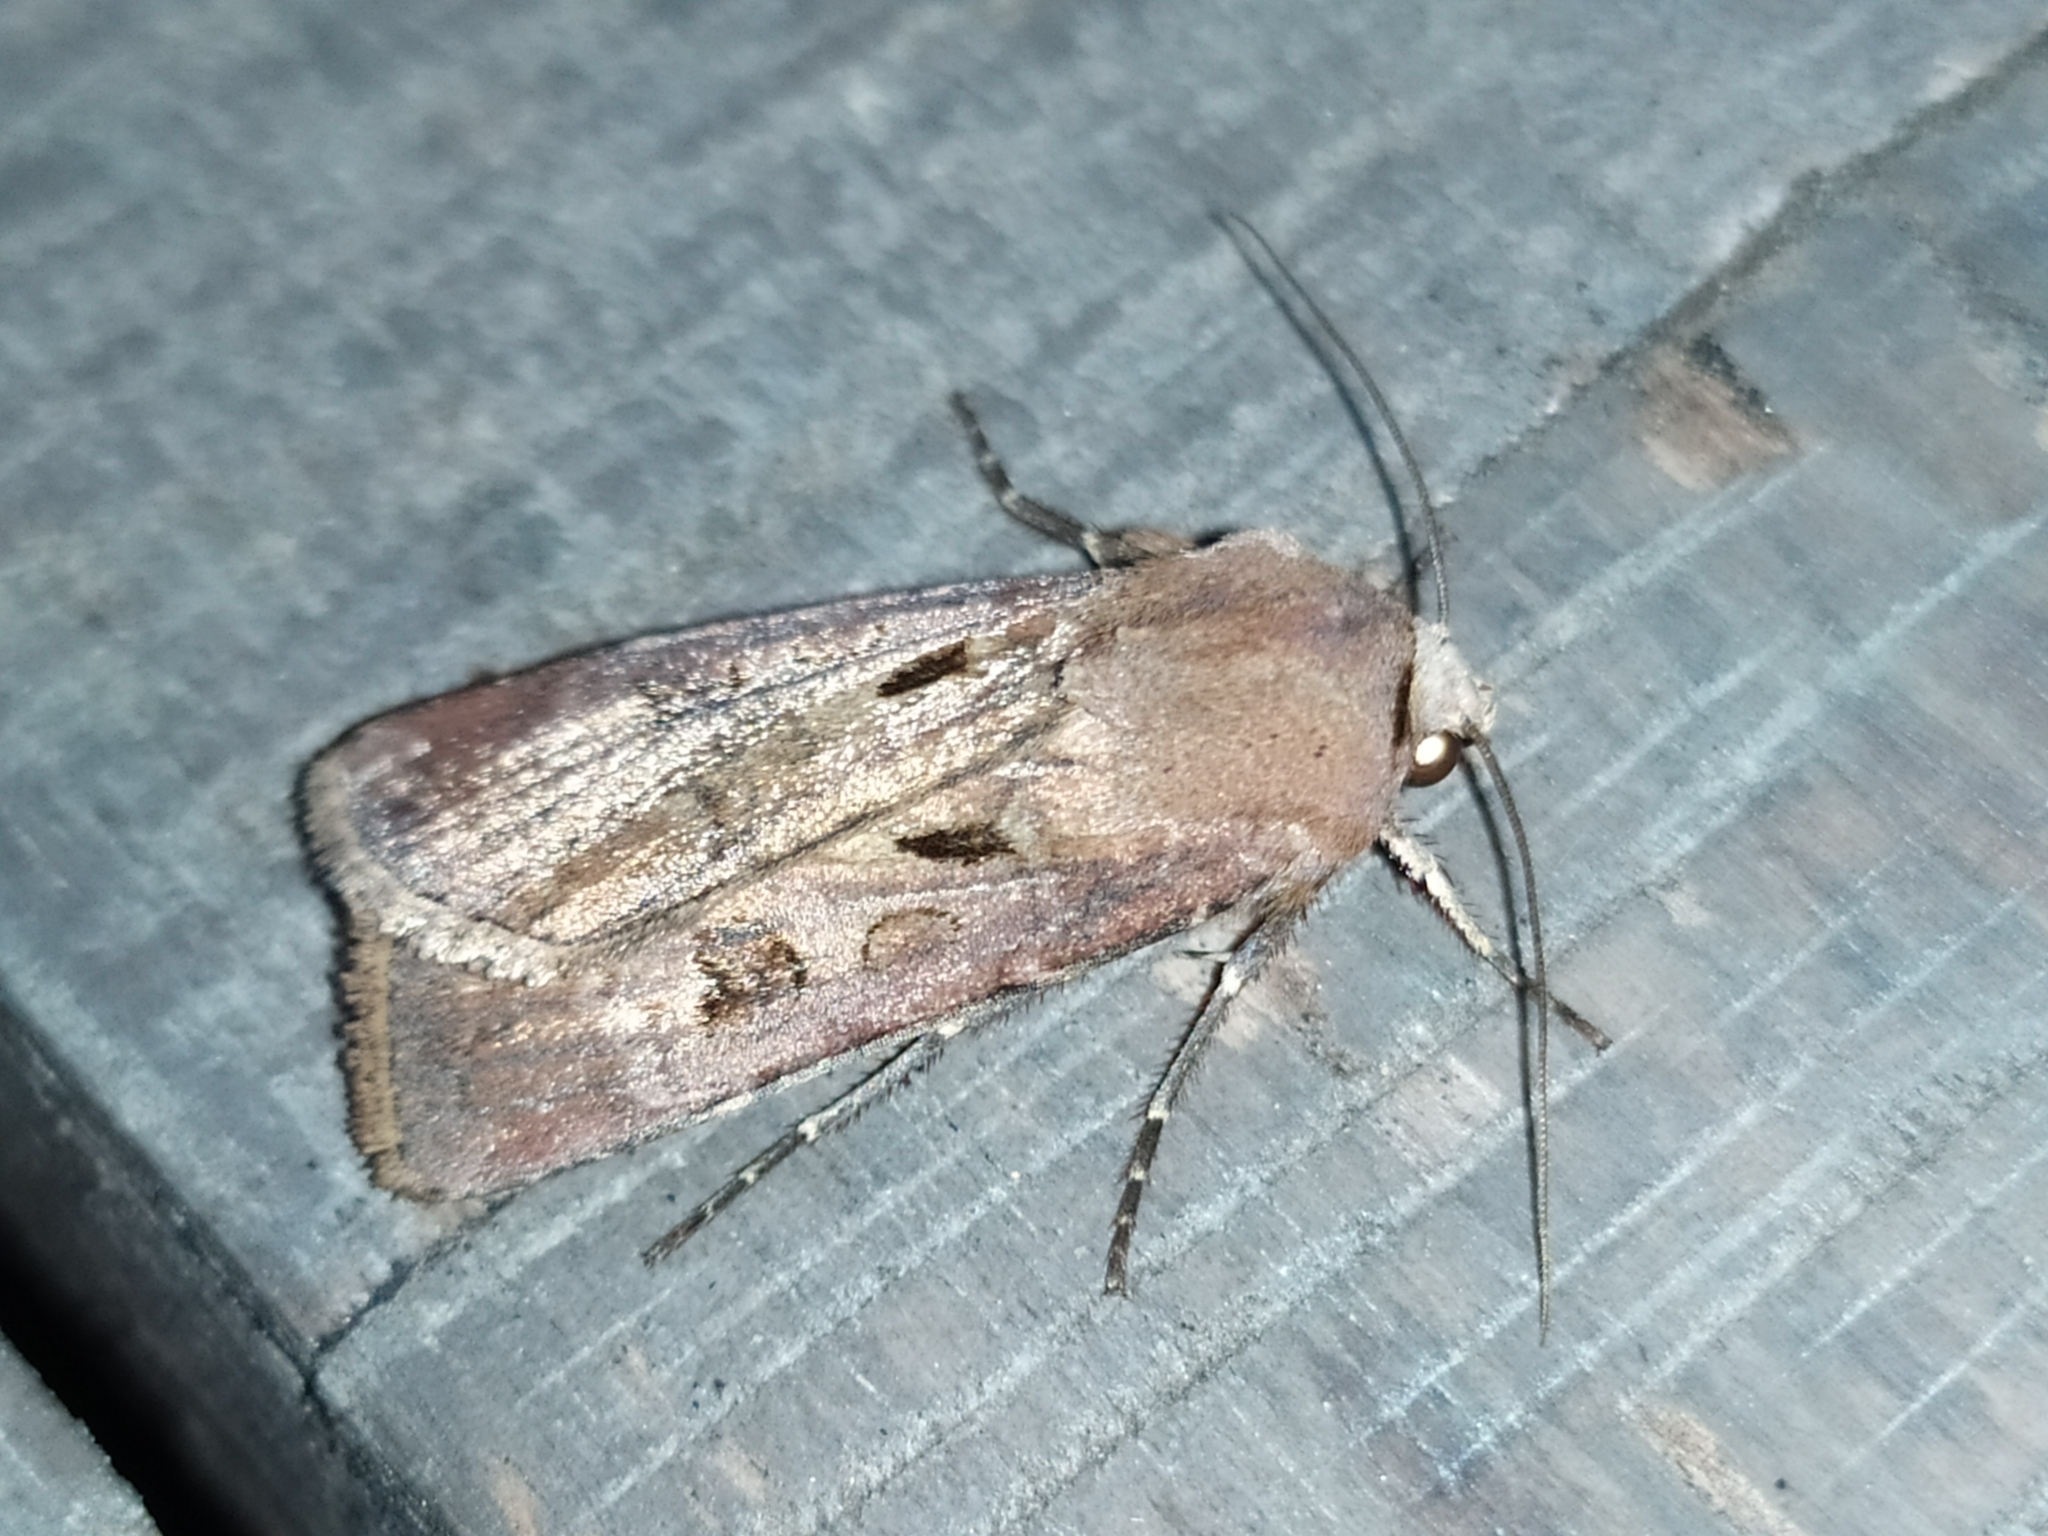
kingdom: Animalia
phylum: Arthropoda
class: Insecta
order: Lepidoptera
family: Noctuidae
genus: Agrotis
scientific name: Agrotis exclamationis
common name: Heart and dart
